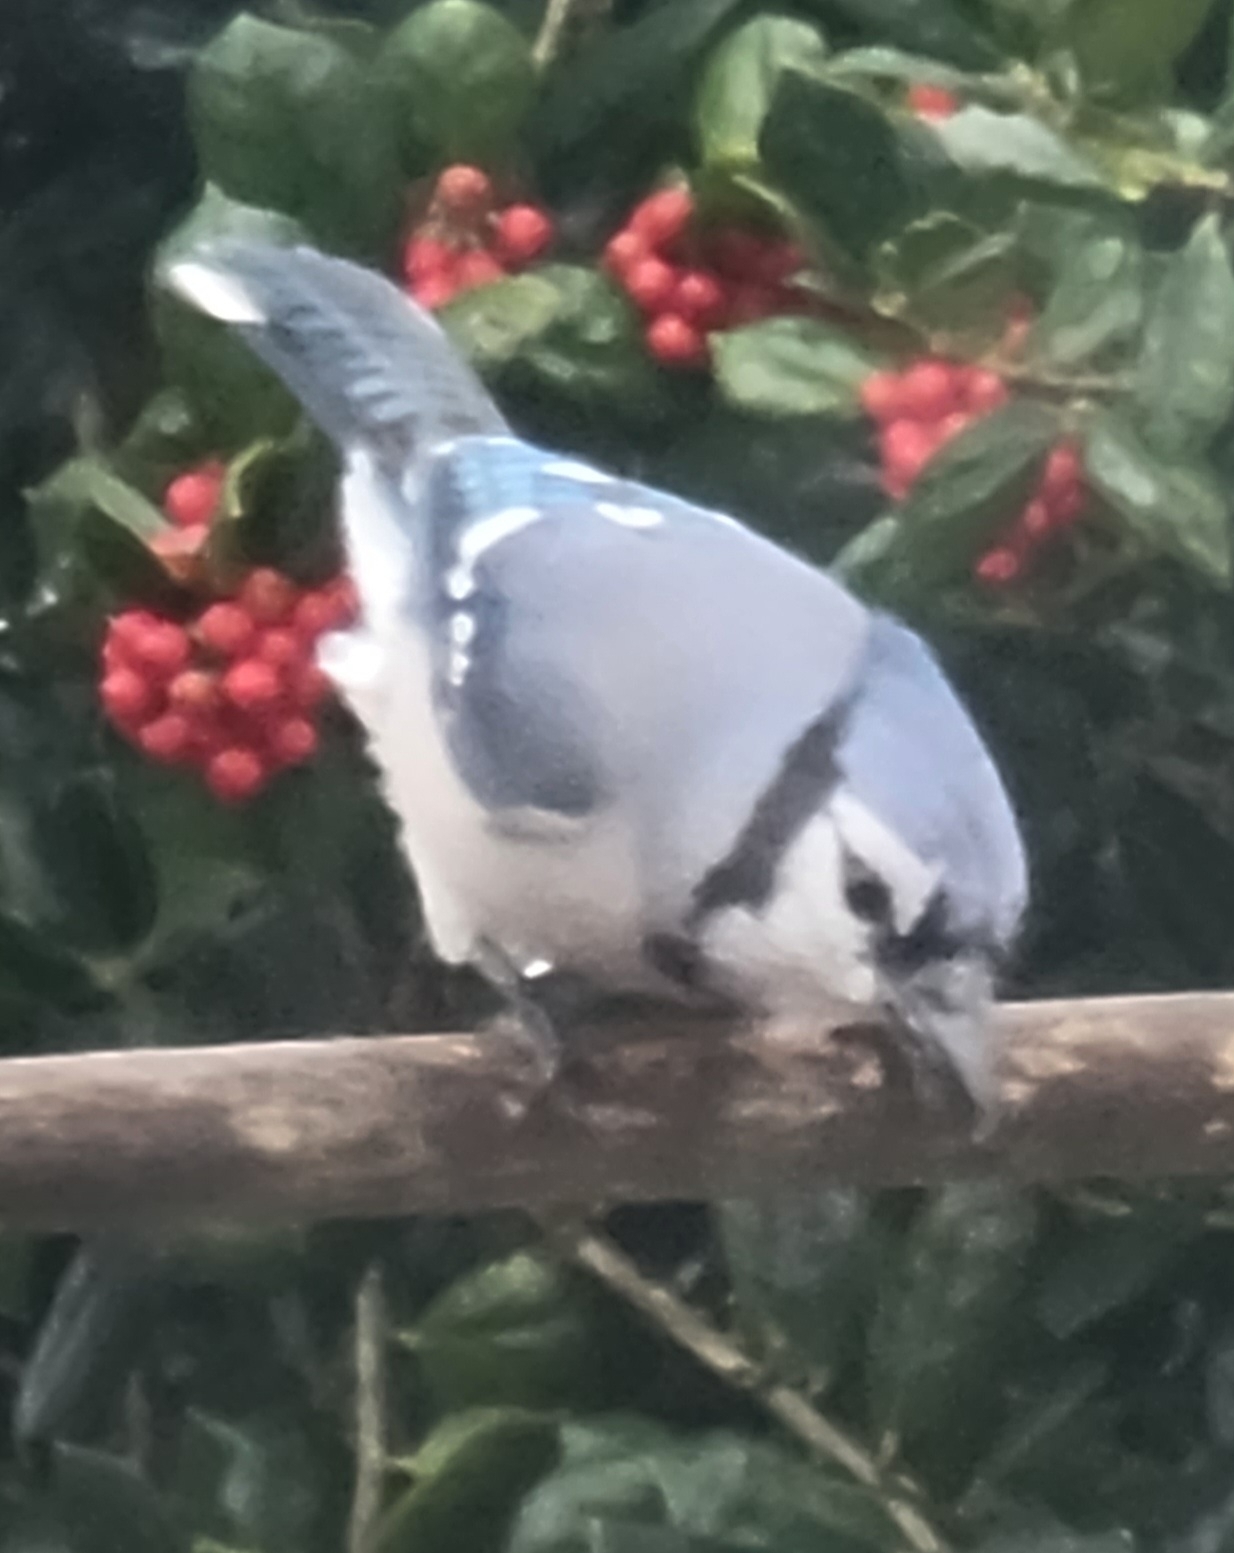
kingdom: Animalia
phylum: Chordata
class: Aves
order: Passeriformes
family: Corvidae
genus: Cyanocitta
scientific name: Cyanocitta cristata
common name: Blue jay
